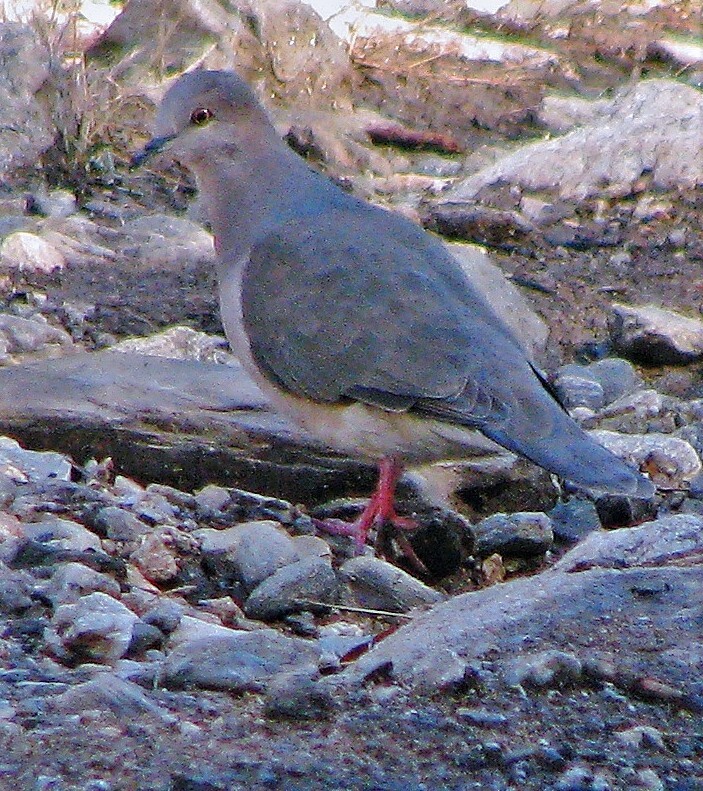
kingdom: Animalia
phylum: Chordata
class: Aves
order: Columbiformes
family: Columbidae
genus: Leptotila
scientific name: Leptotila verreauxi
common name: White-tipped dove
